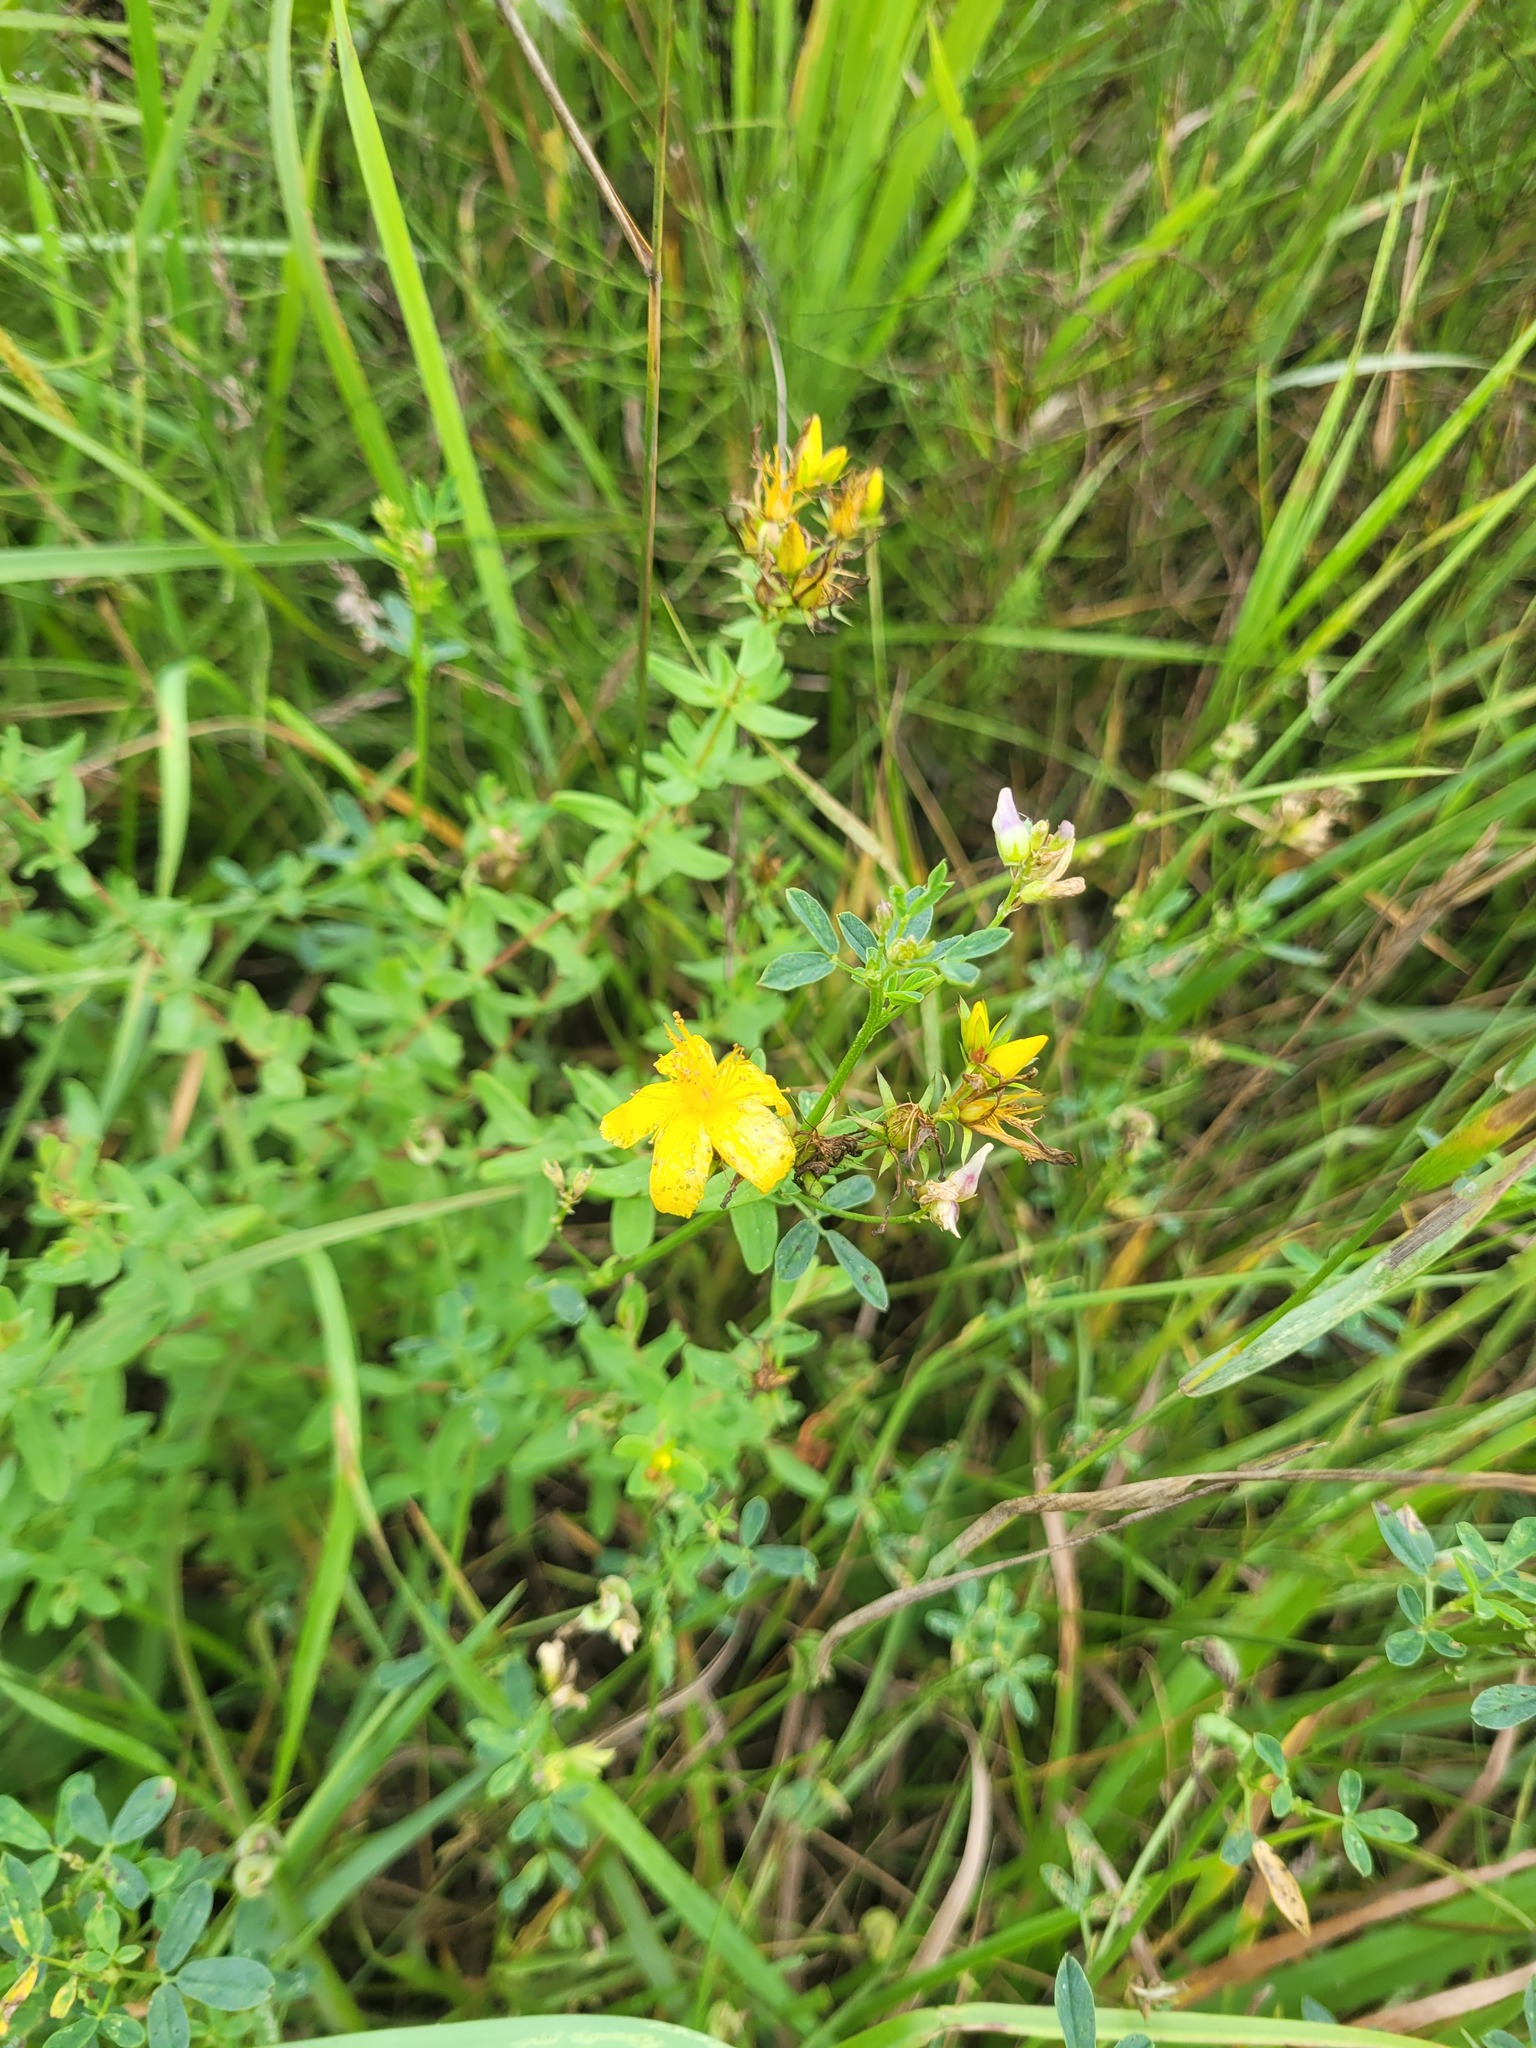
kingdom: Plantae
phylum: Tracheophyta
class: Magnoliopsida
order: Malpighiales
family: Hypericaceae
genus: Hypericum
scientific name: Hypericum perforatum
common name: Common st. johnswort
